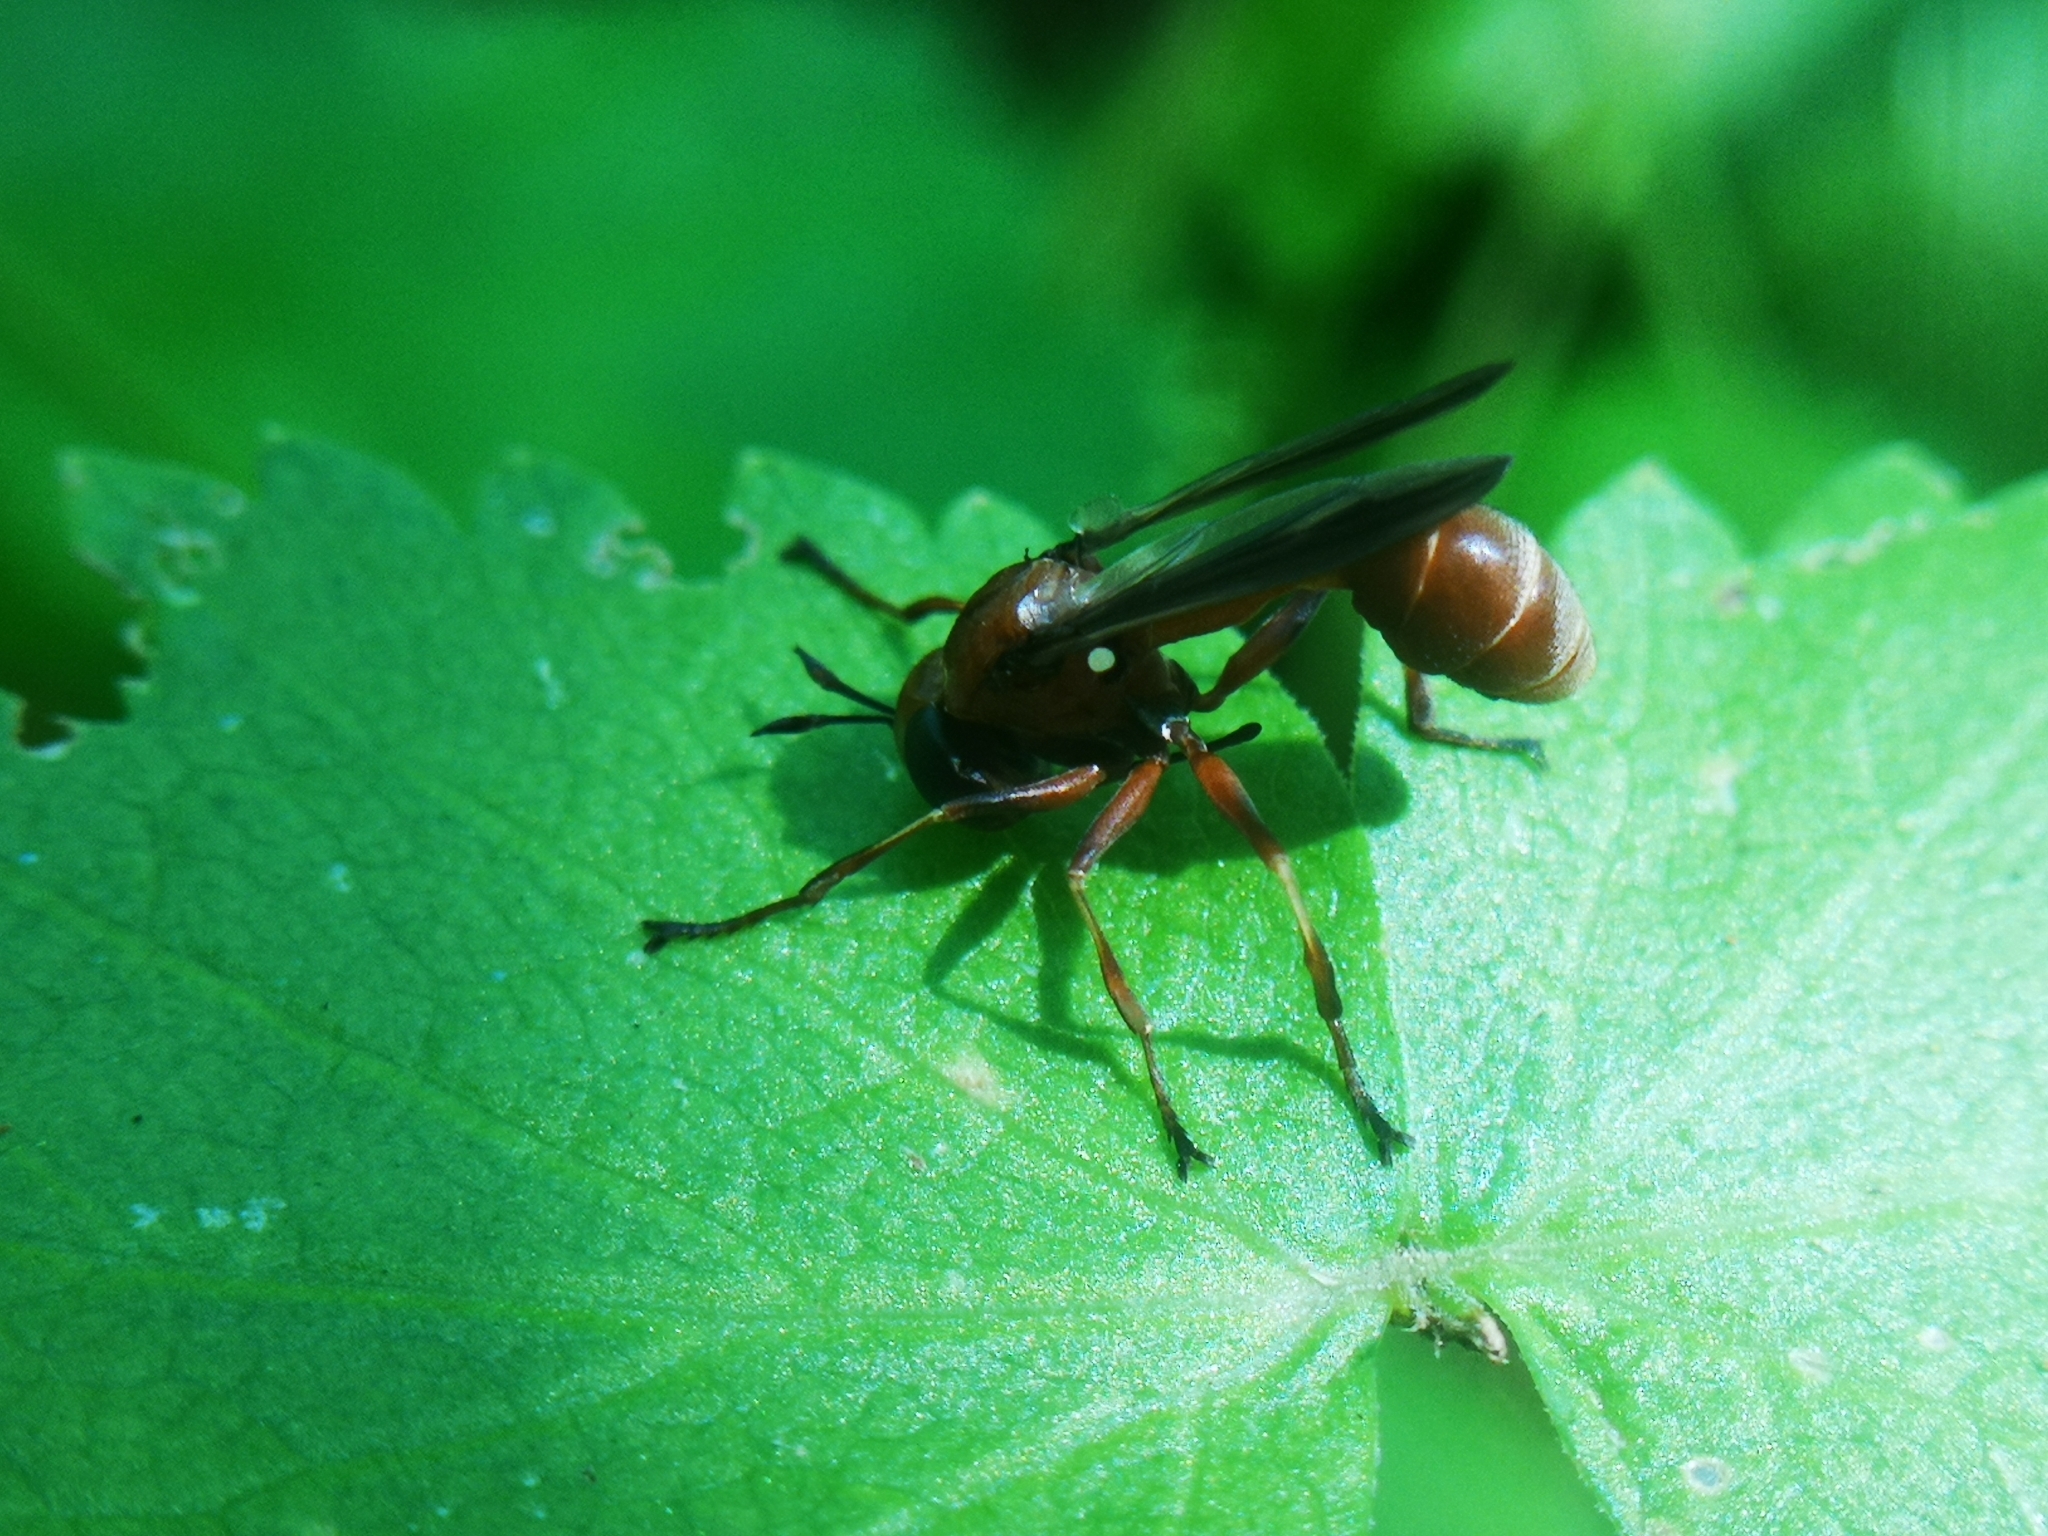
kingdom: Animalia
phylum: Arthropoda
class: Insecta
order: Diptera
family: Conopidae
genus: Physocephala
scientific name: Physocephala furcillata
